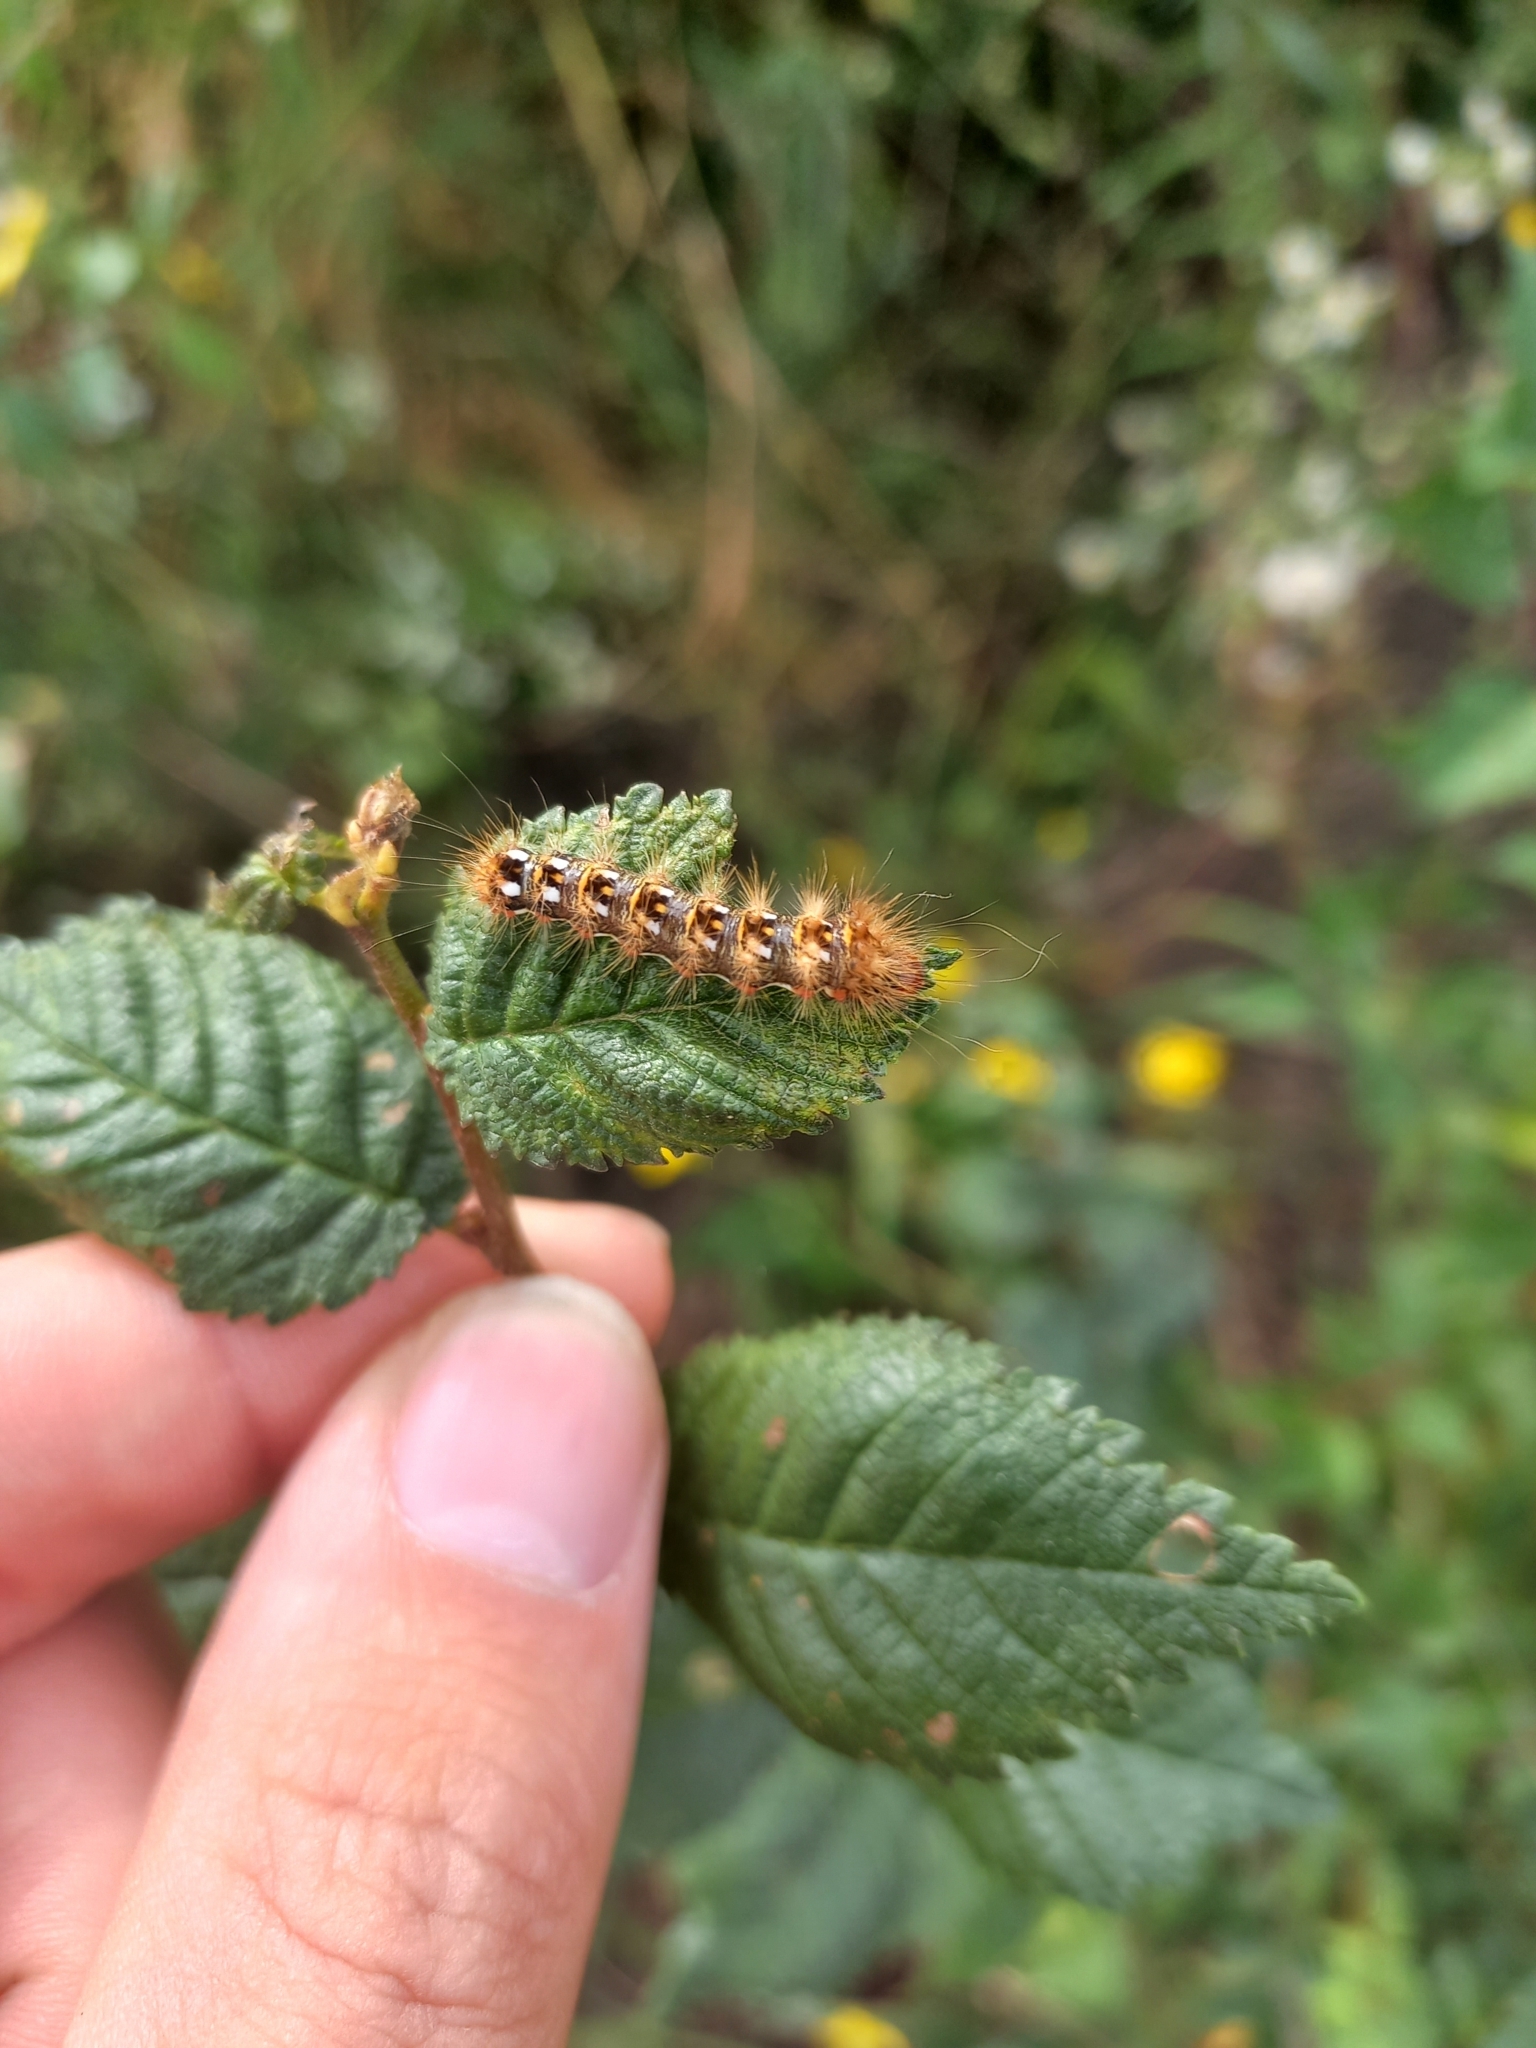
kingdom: Animalia
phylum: Arthropoda
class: Insecta
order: Lepidoptera
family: Noctuidae
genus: Acronicta
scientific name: Acronicta rumicis
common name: Knot grass
